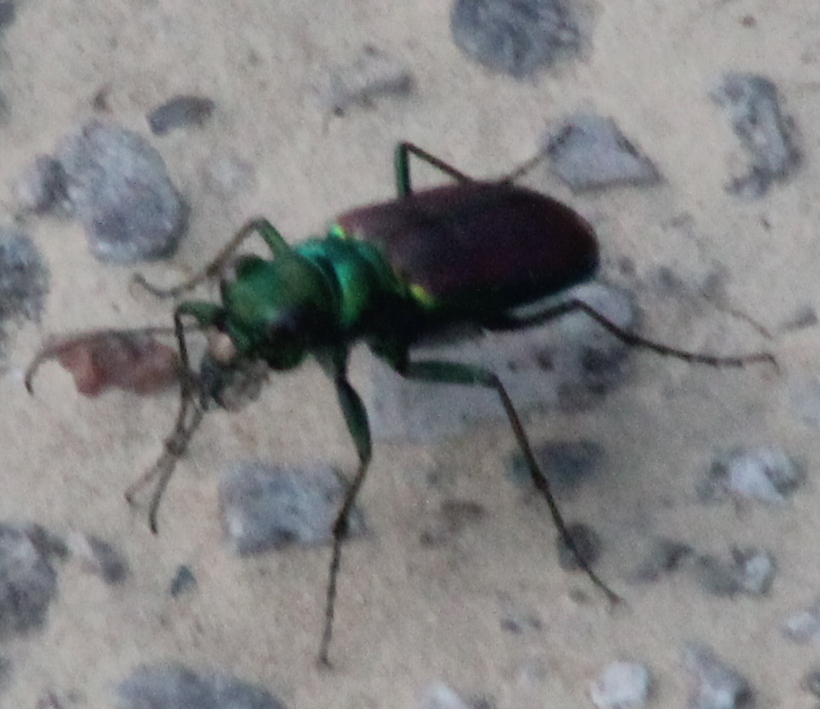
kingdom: Animalia
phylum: Arthropoda
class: Insecta
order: Coleoptera
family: Carabidae
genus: Cicindela
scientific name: Cicindela splendida
